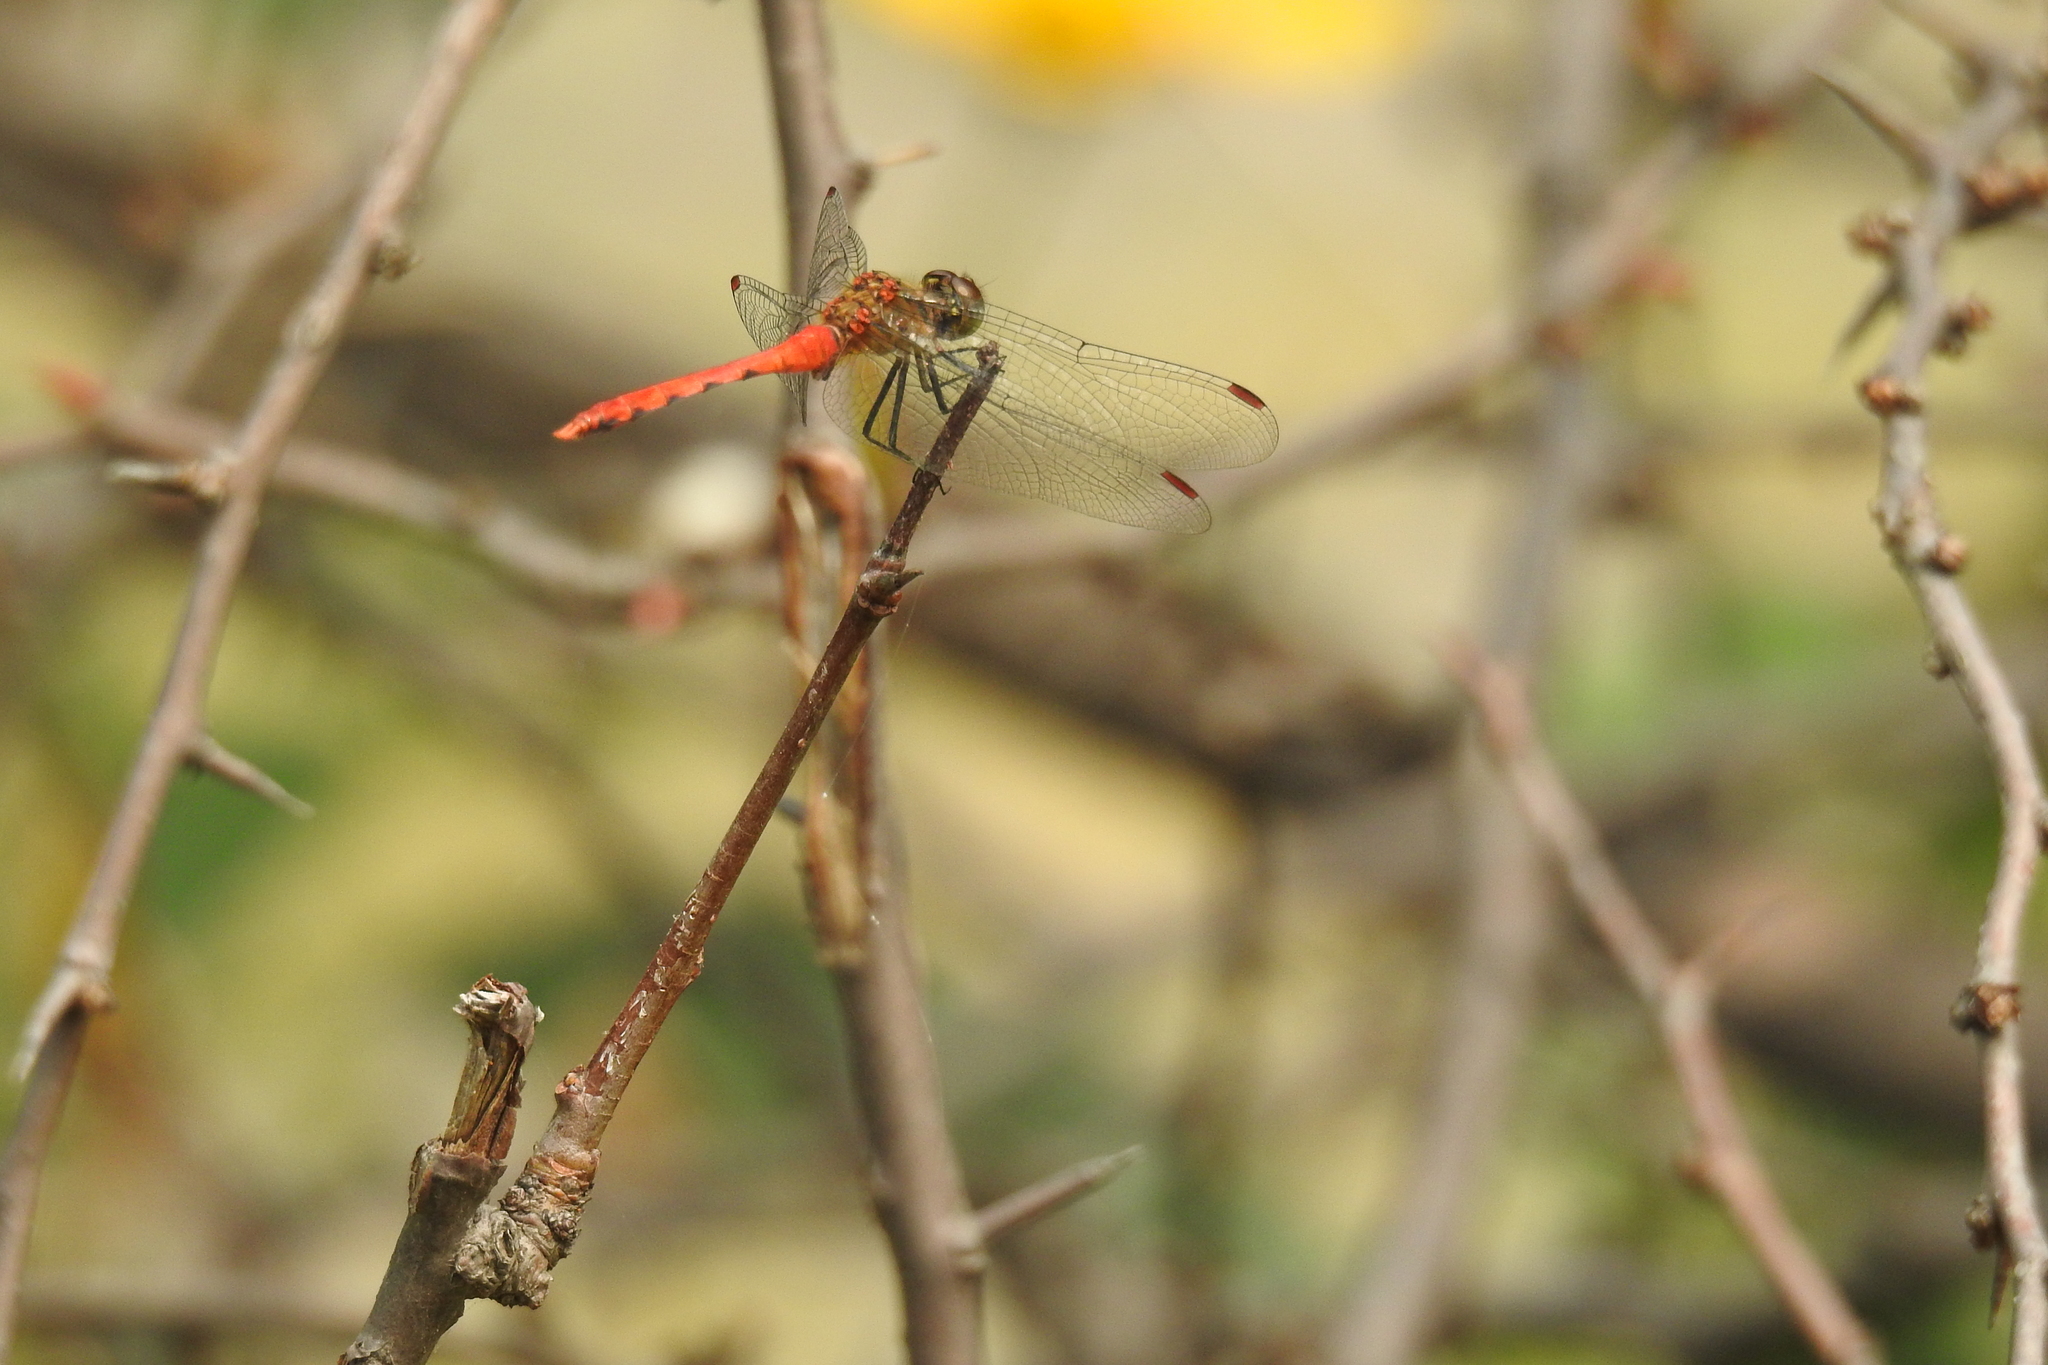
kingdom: Animalia
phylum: Arthropoda
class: Insecta
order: Odonata
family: Libellulidae
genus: Sympetrum
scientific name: Sympetrum eroticum
